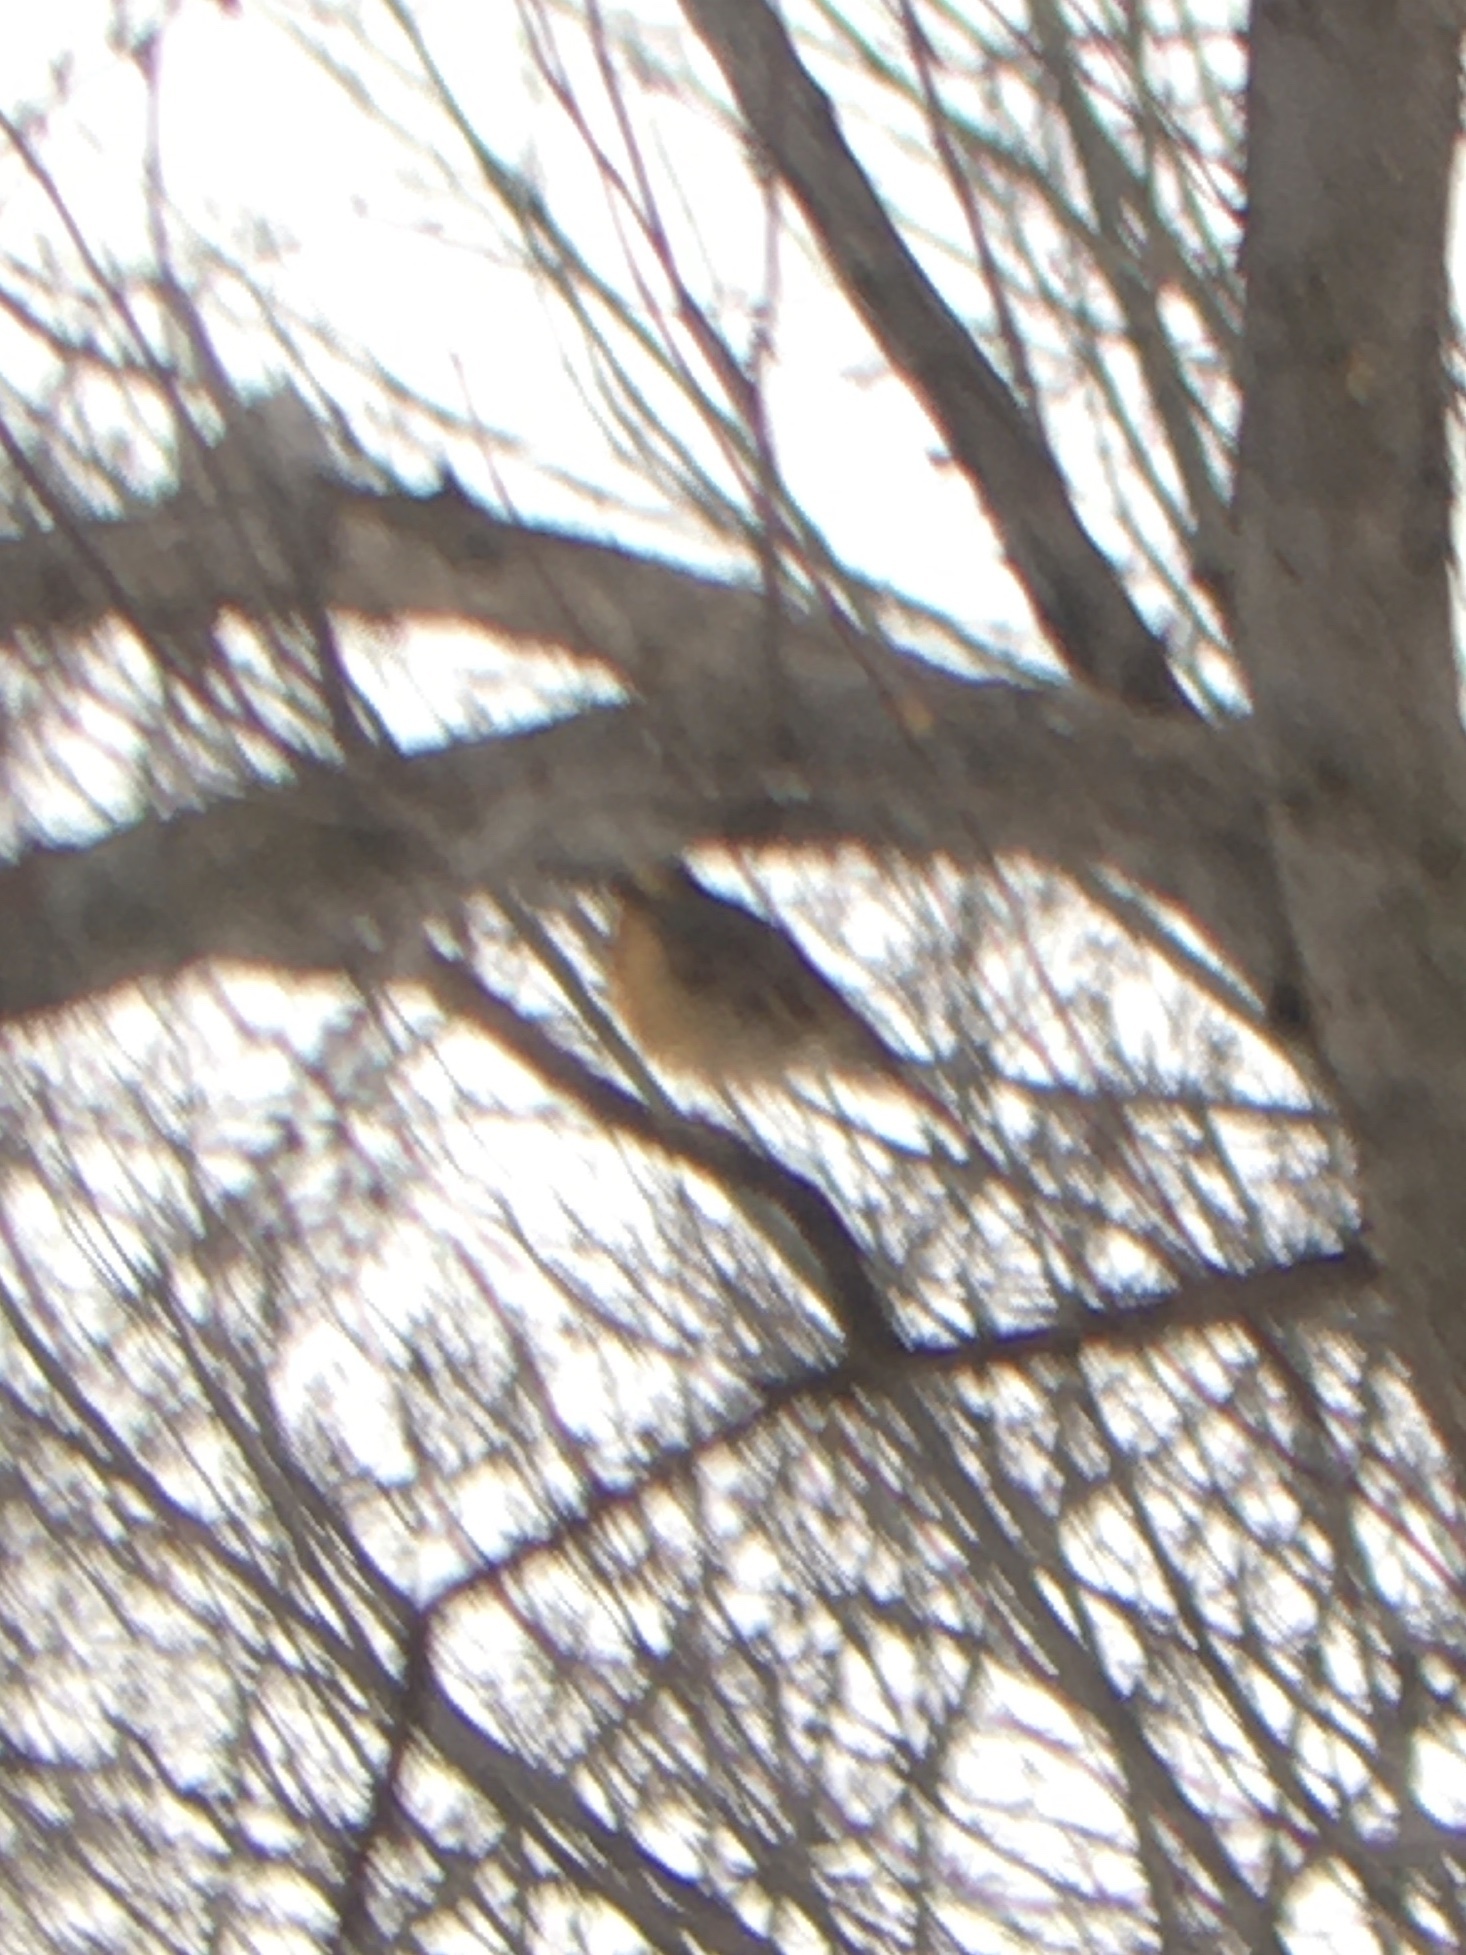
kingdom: Animalia
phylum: Chordata
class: Aves
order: Passeriformes
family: Turdidae
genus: Ixoreus
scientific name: Ixoreus naevius
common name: Varied thrush
